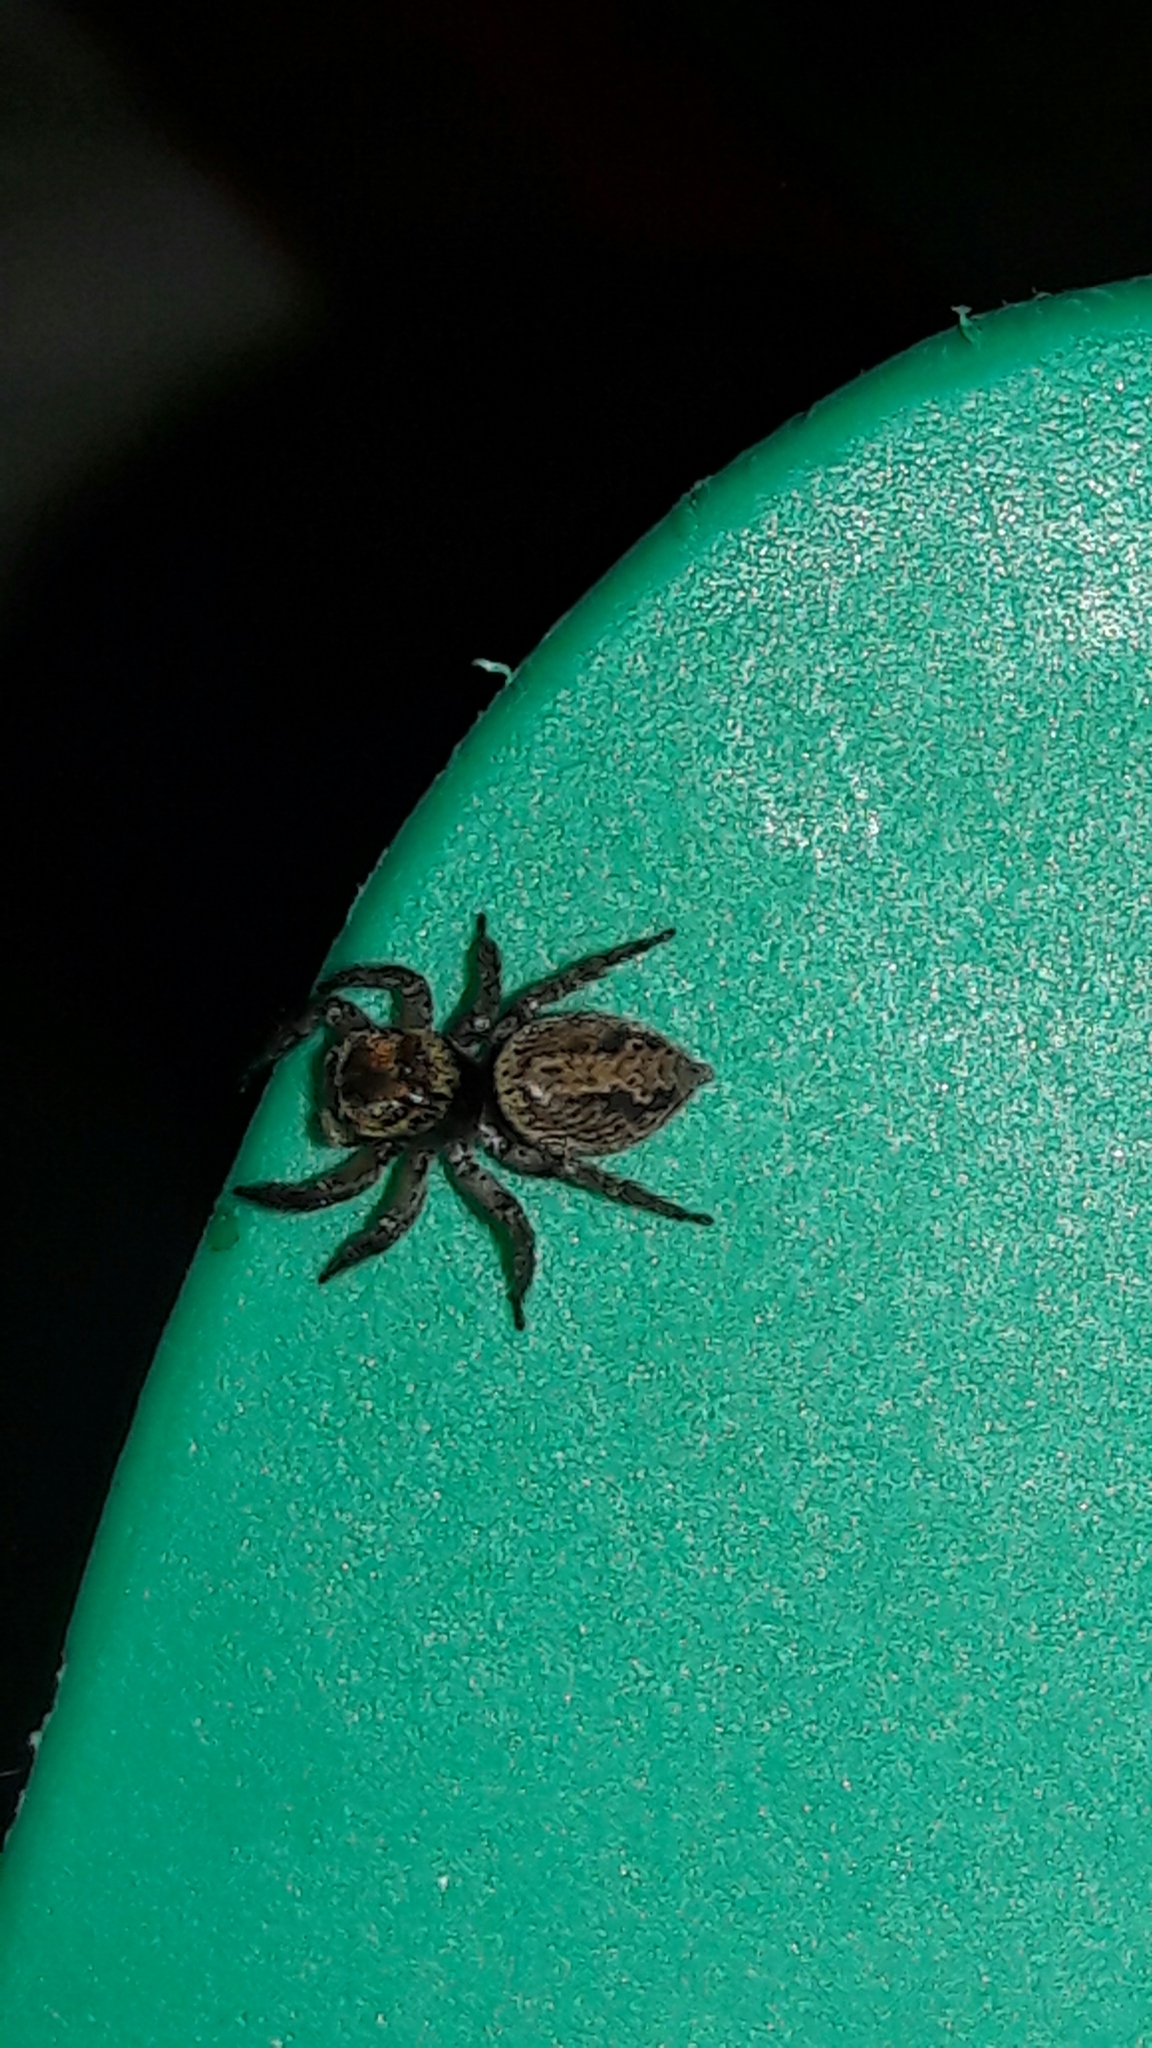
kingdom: Animalia
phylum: Arthropoda
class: Arachnida
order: Araneae
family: Salticidae
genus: Hasarius
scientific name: Hasarius adansoni
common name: Jumping spider
